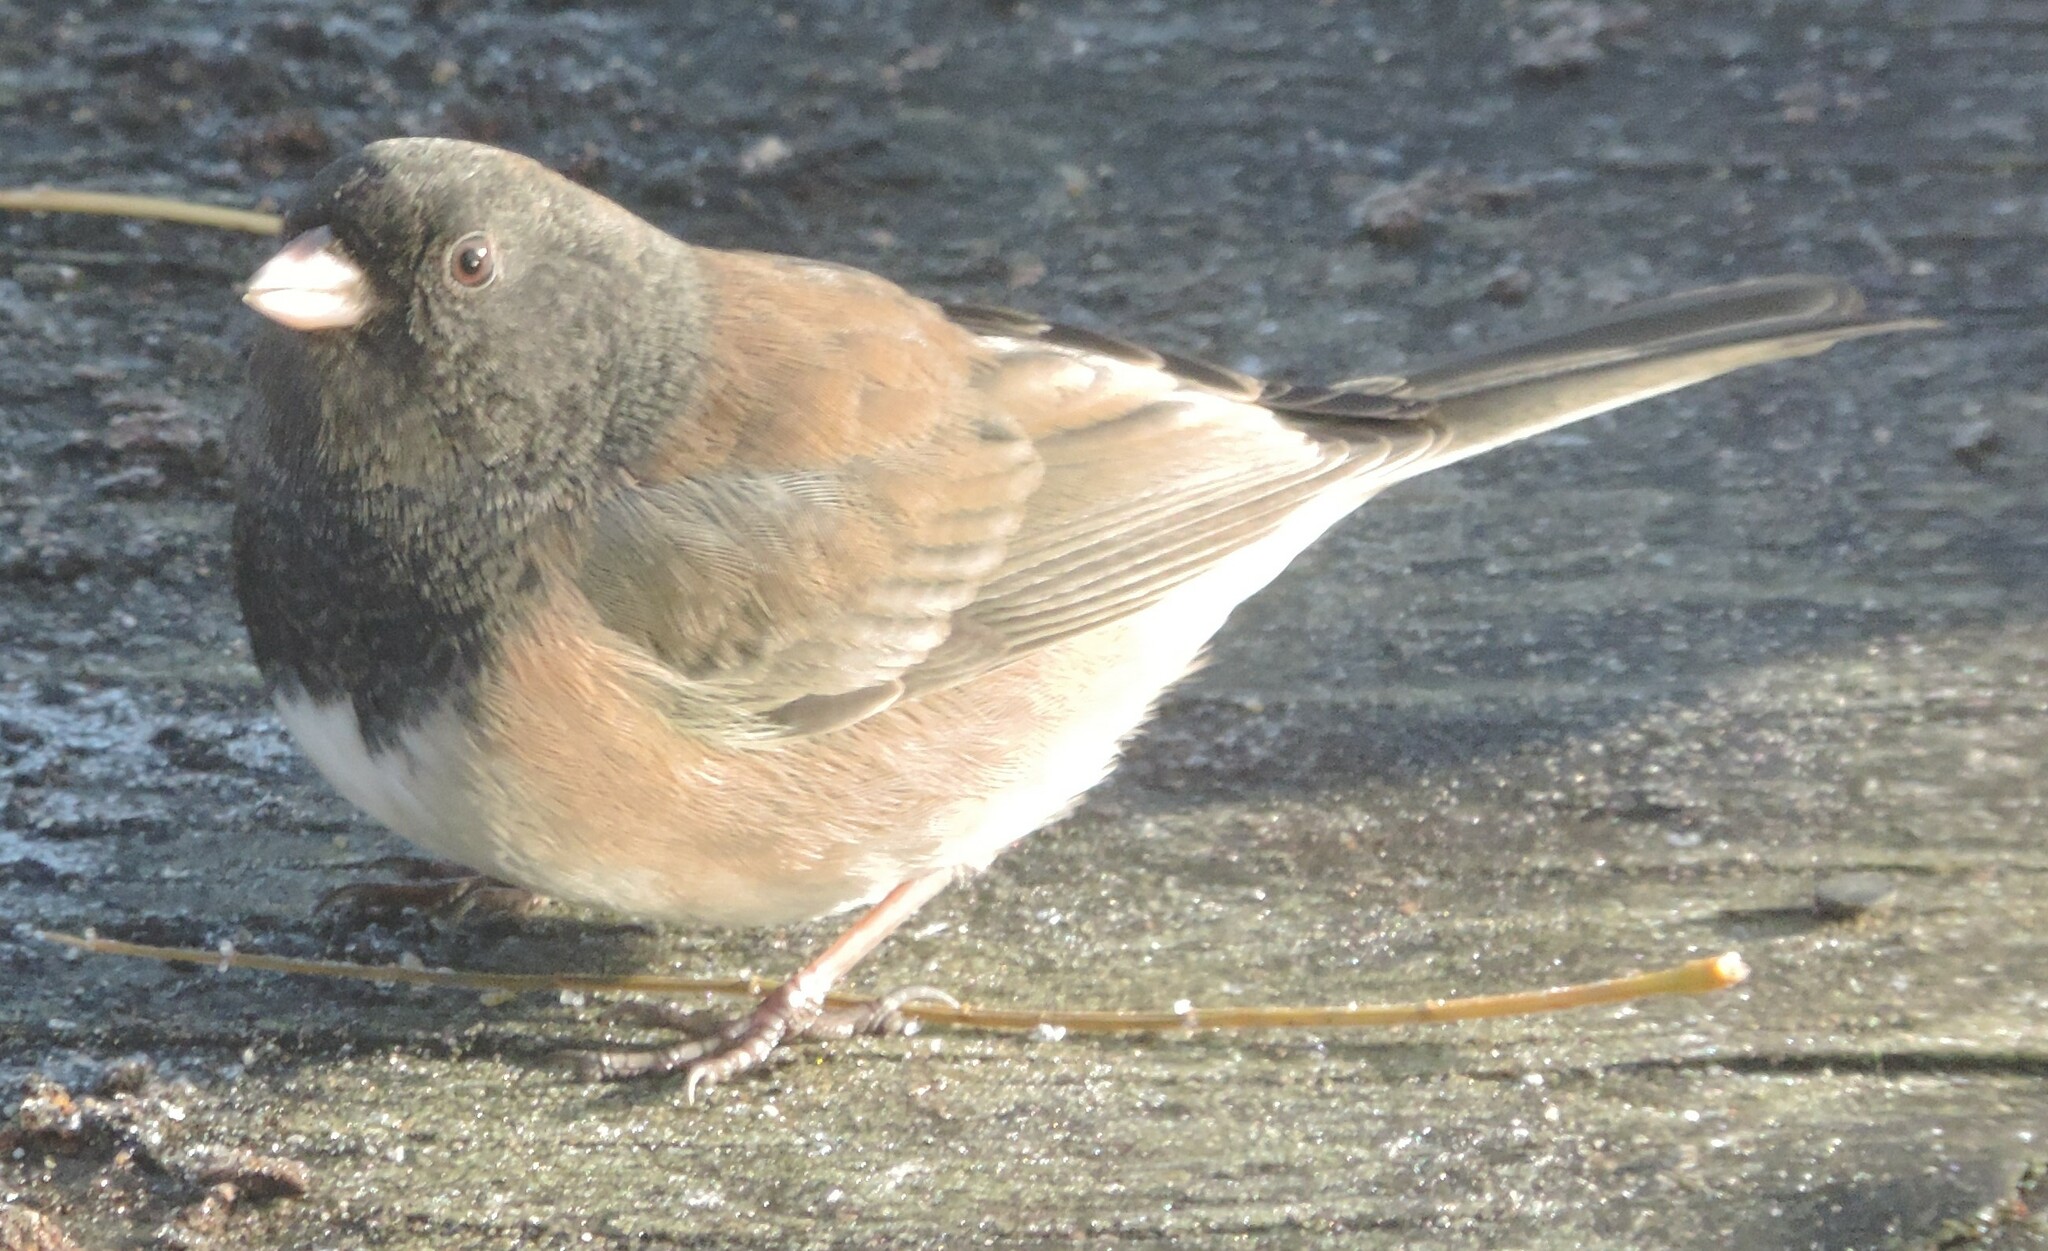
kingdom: Animalia
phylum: Chordata
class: Aves
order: Passeriformes
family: Passerellidae
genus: Junco
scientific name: Junco hyemalis
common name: Dark-eyed junco
